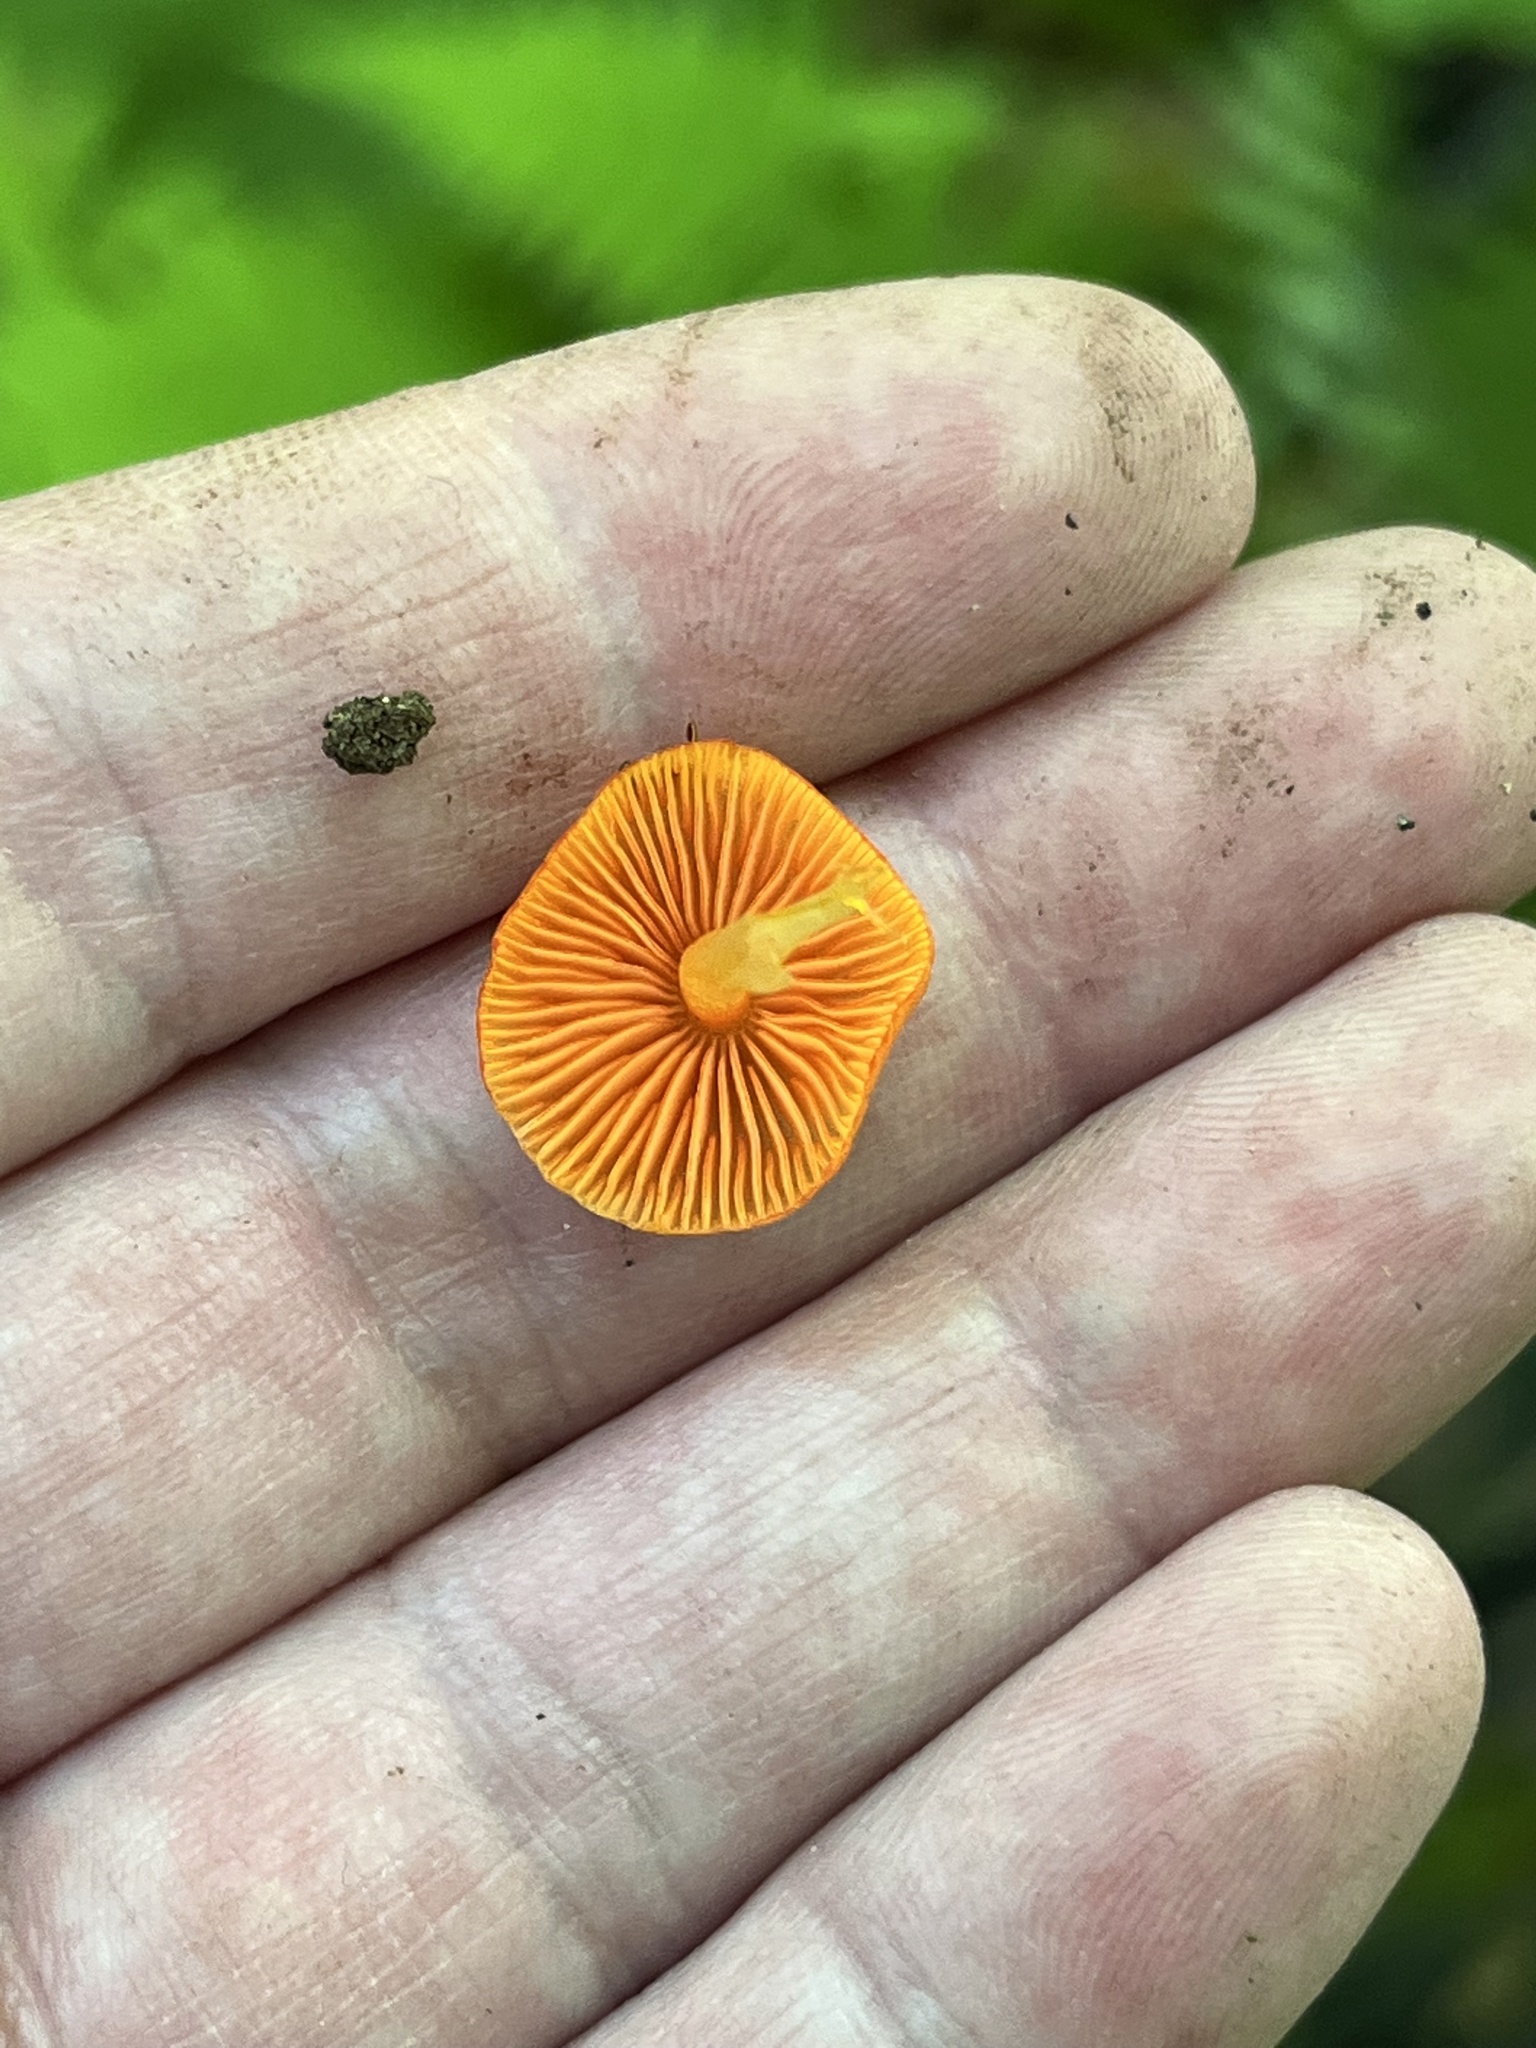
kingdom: Fungi
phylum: Basidiomycota
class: Agaricomycetes
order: Agaricales
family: Mycenaceae
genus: Mycena
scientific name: Mycena leaiana
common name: Orange mycena
